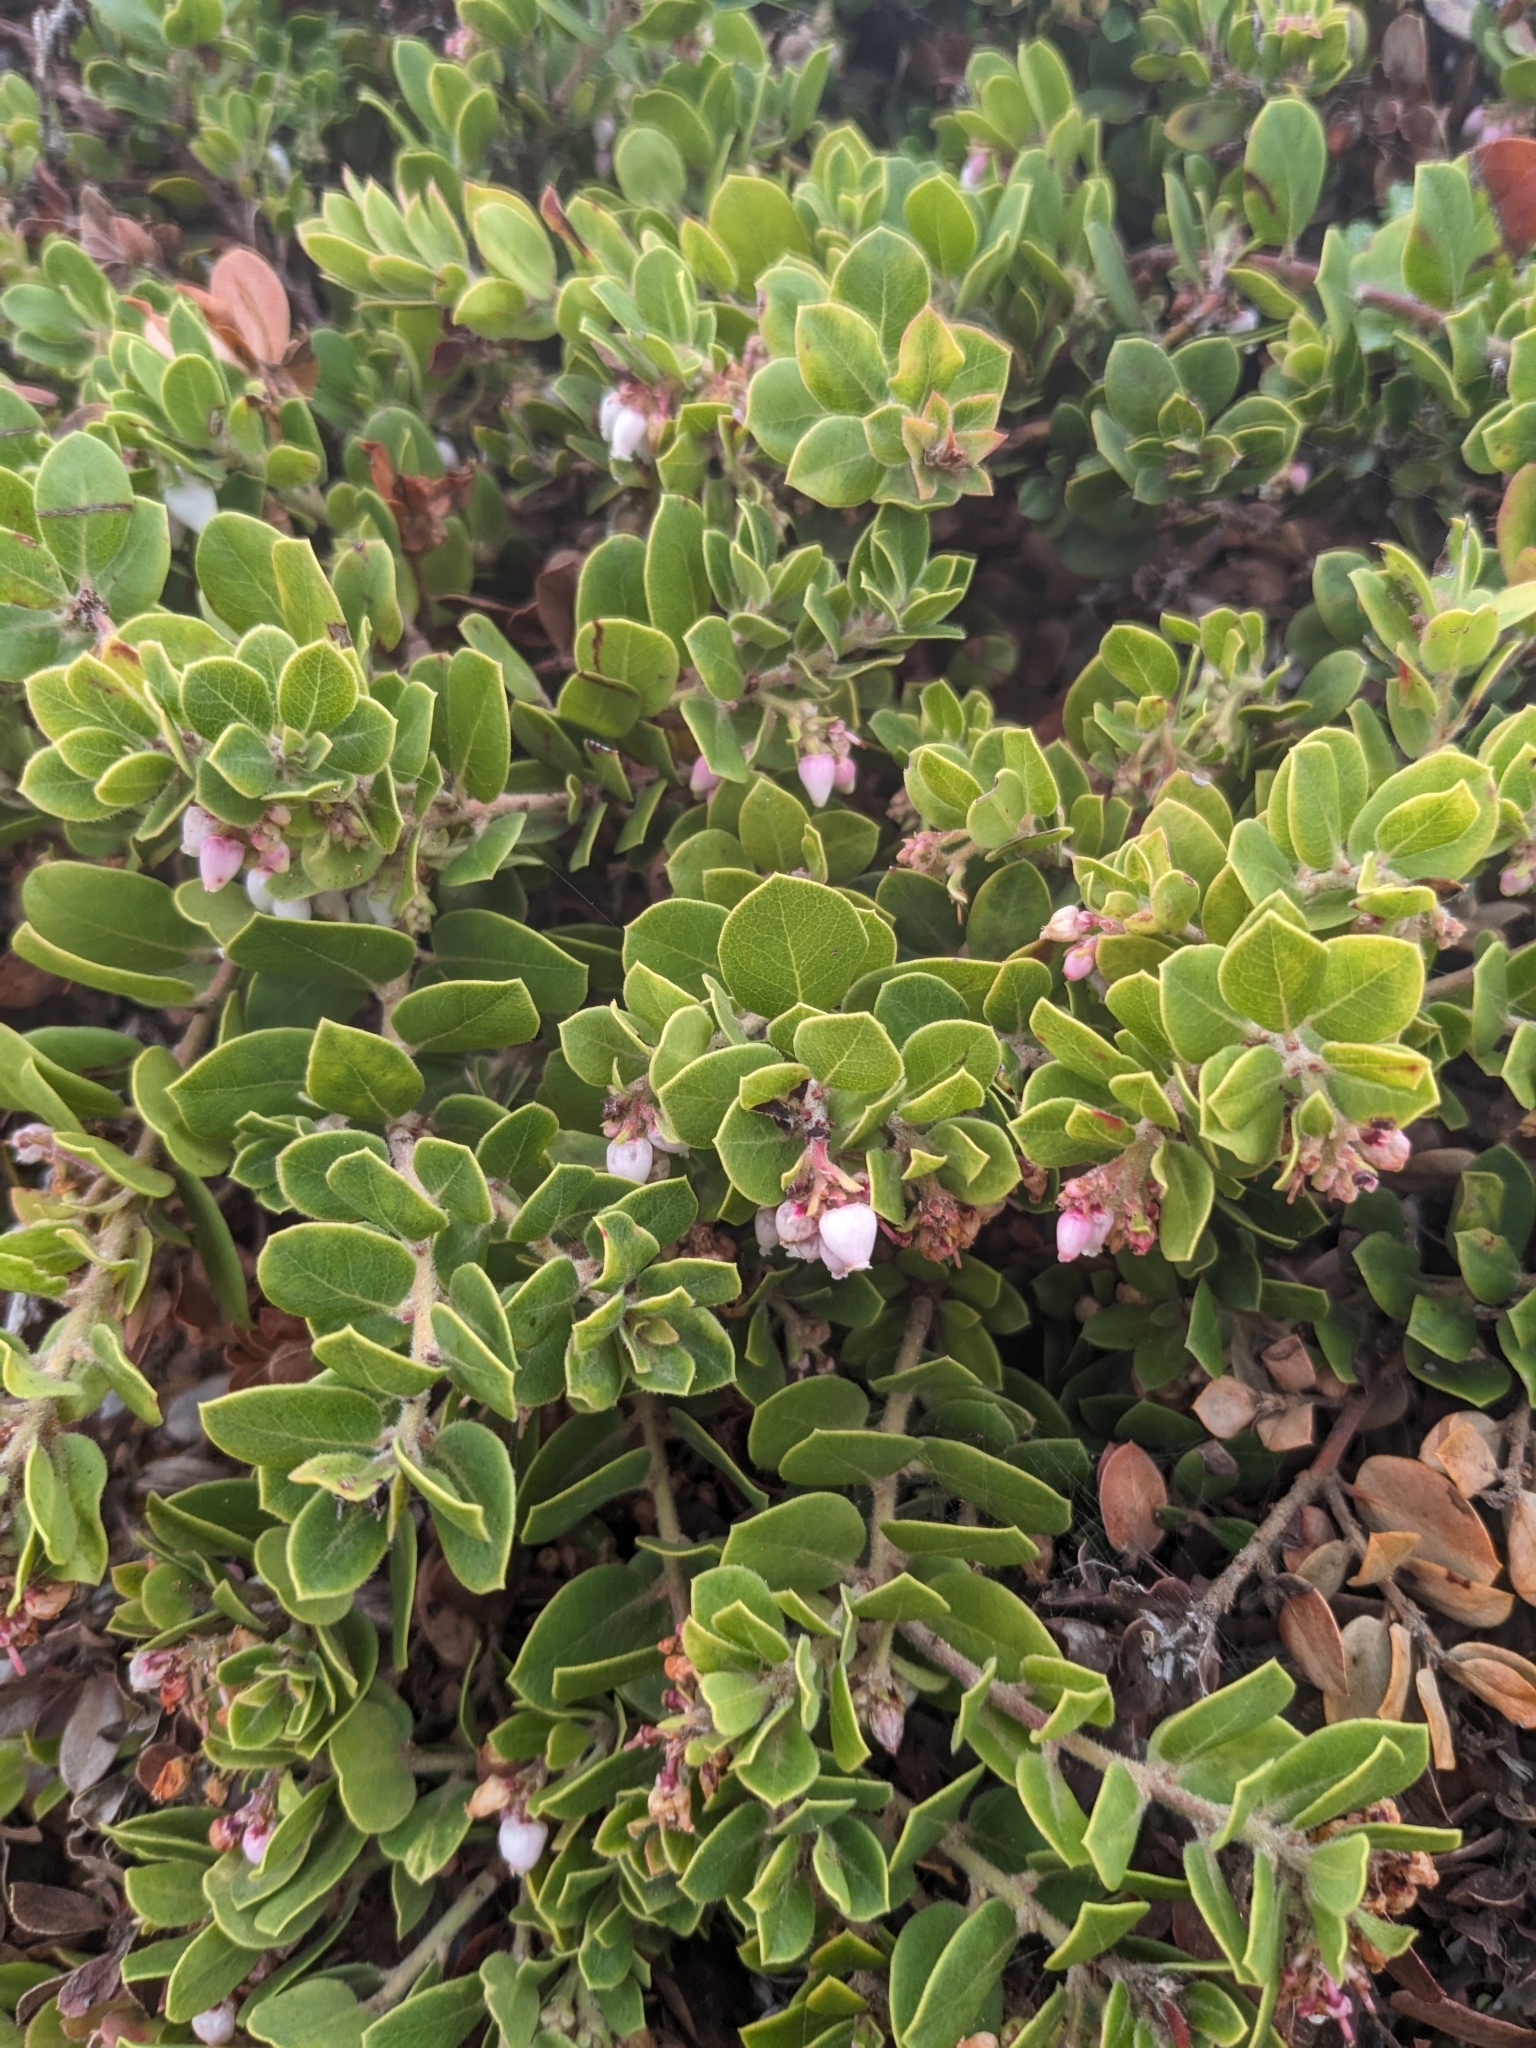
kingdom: Plantae
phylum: Tracheophyta
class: Magnoliopsida
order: Ericales
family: Ericaceae
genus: Arctostaphylos
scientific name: Arctostaphylos edmundsii
